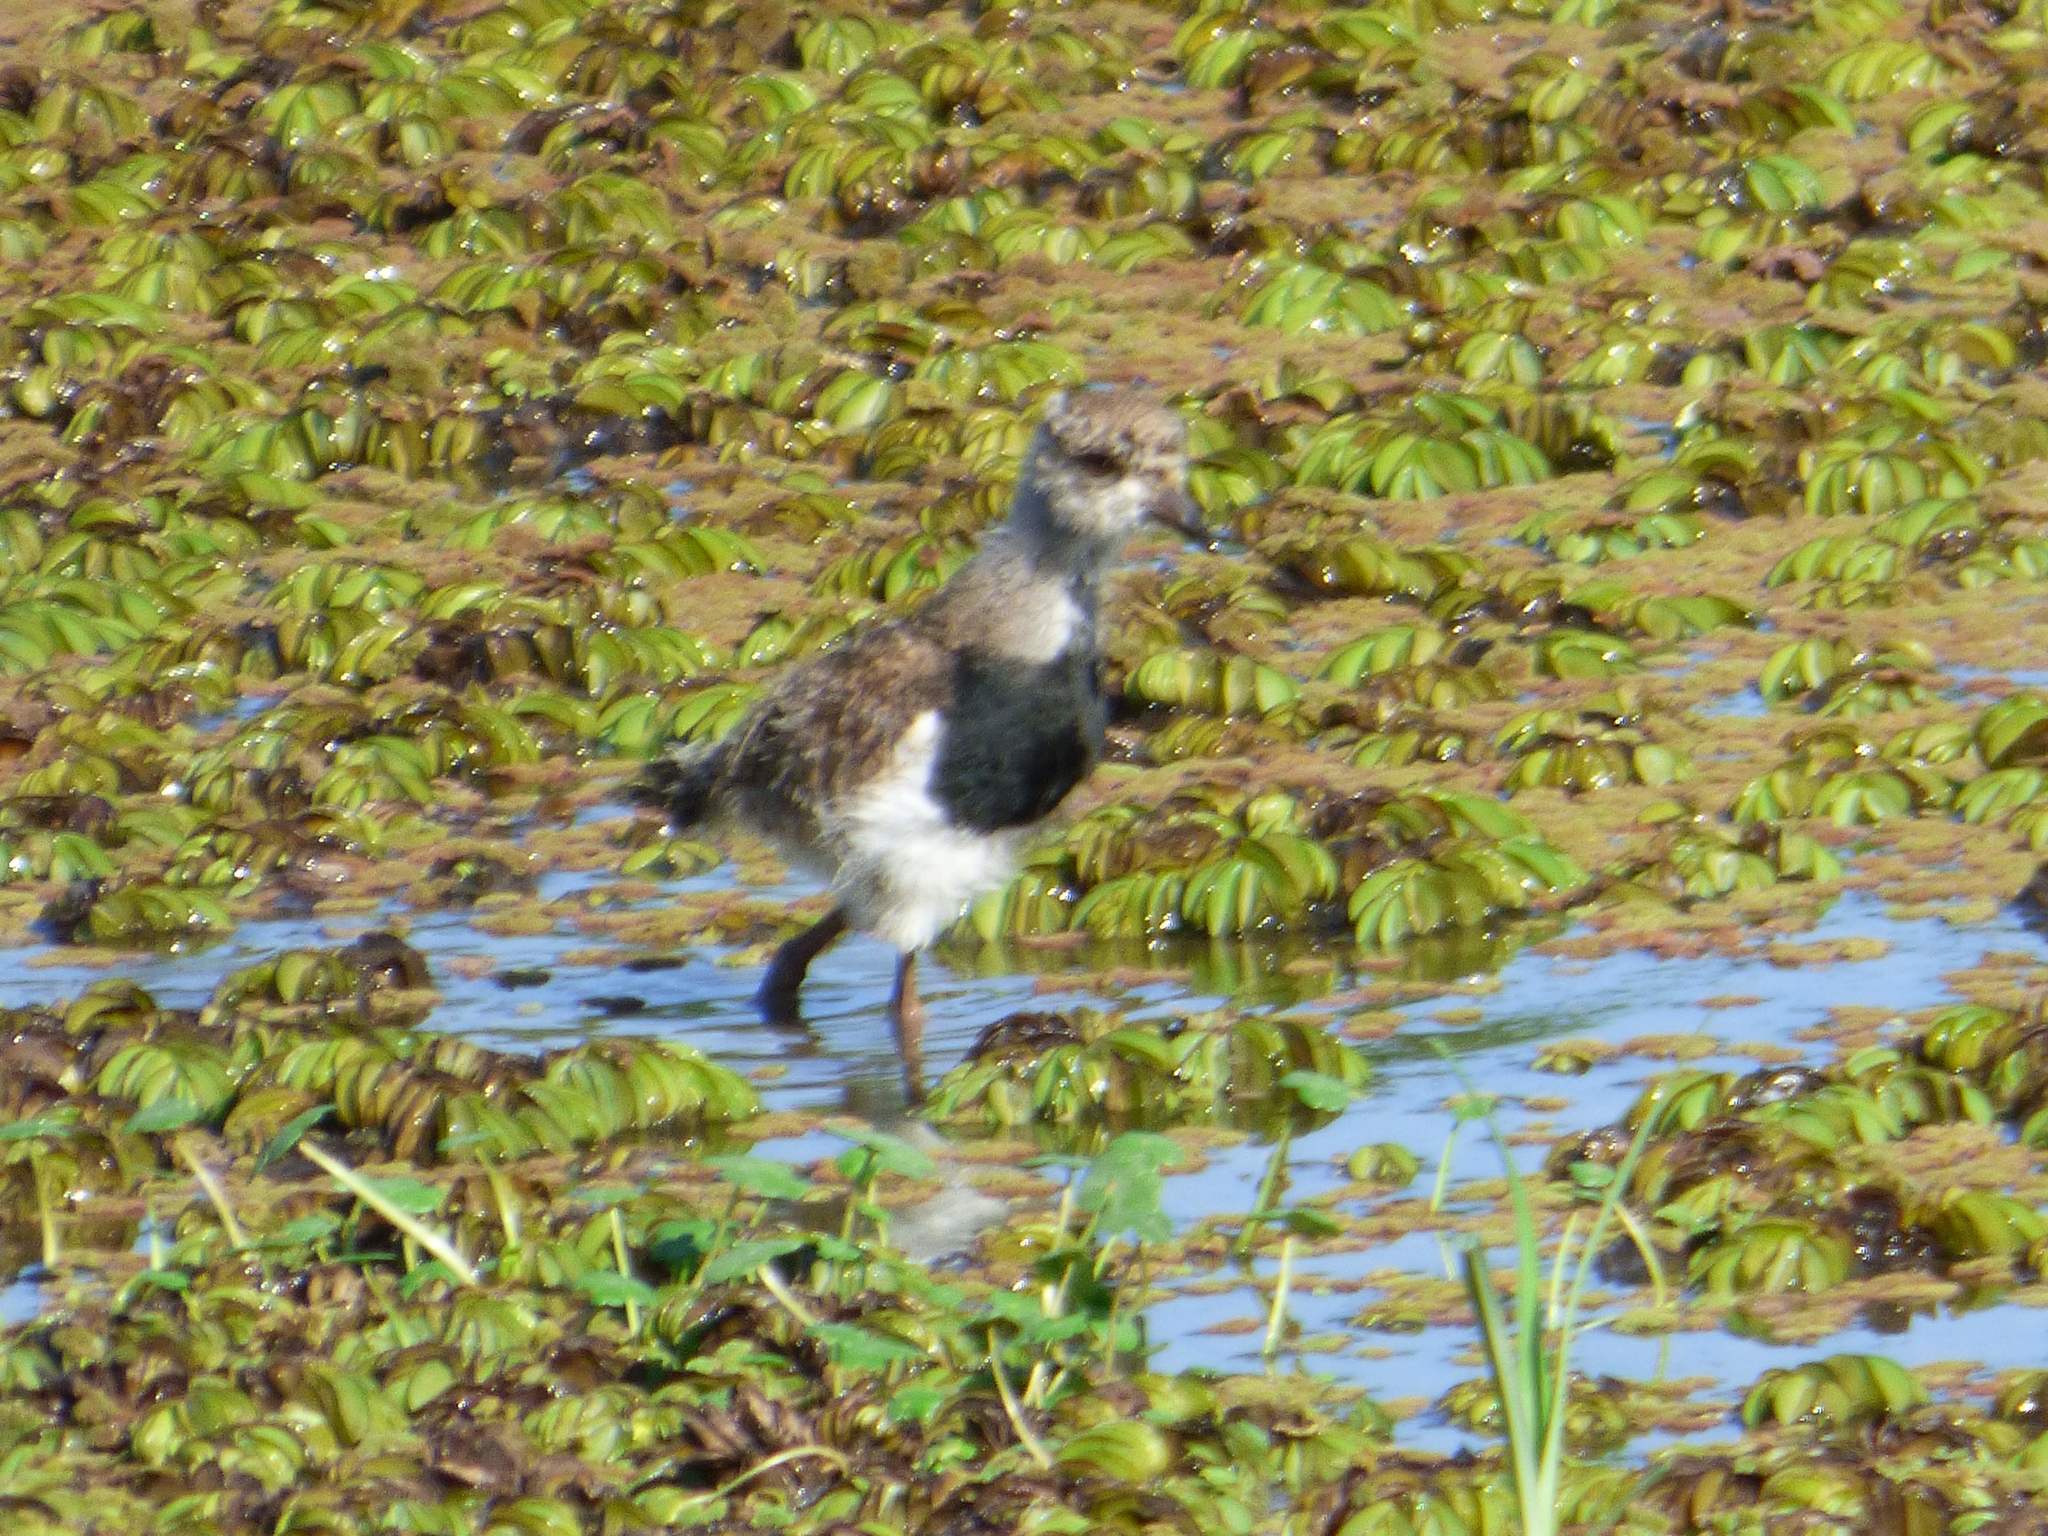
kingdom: Animalia
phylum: Chordata
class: Aves
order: Charadriiformes
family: Charadriidae
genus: Vanellus
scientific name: Vanellus chilensis
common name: Southern lapwing
